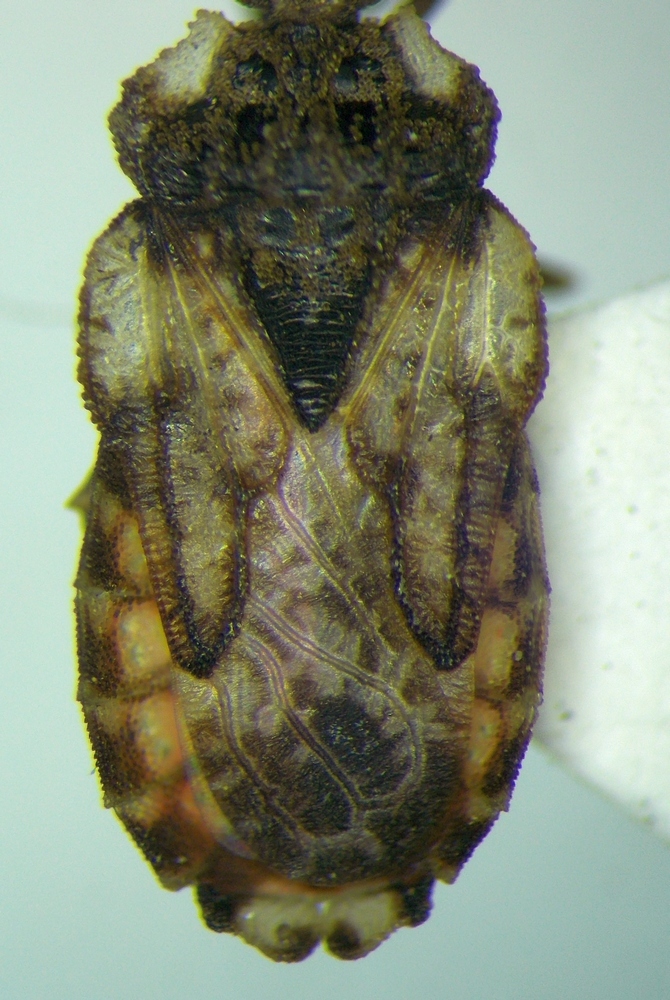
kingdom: Animalia
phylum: Arthropoda
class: Insecta
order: Hemiptera
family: Aradidae
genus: Aradus
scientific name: Aradus depressus
